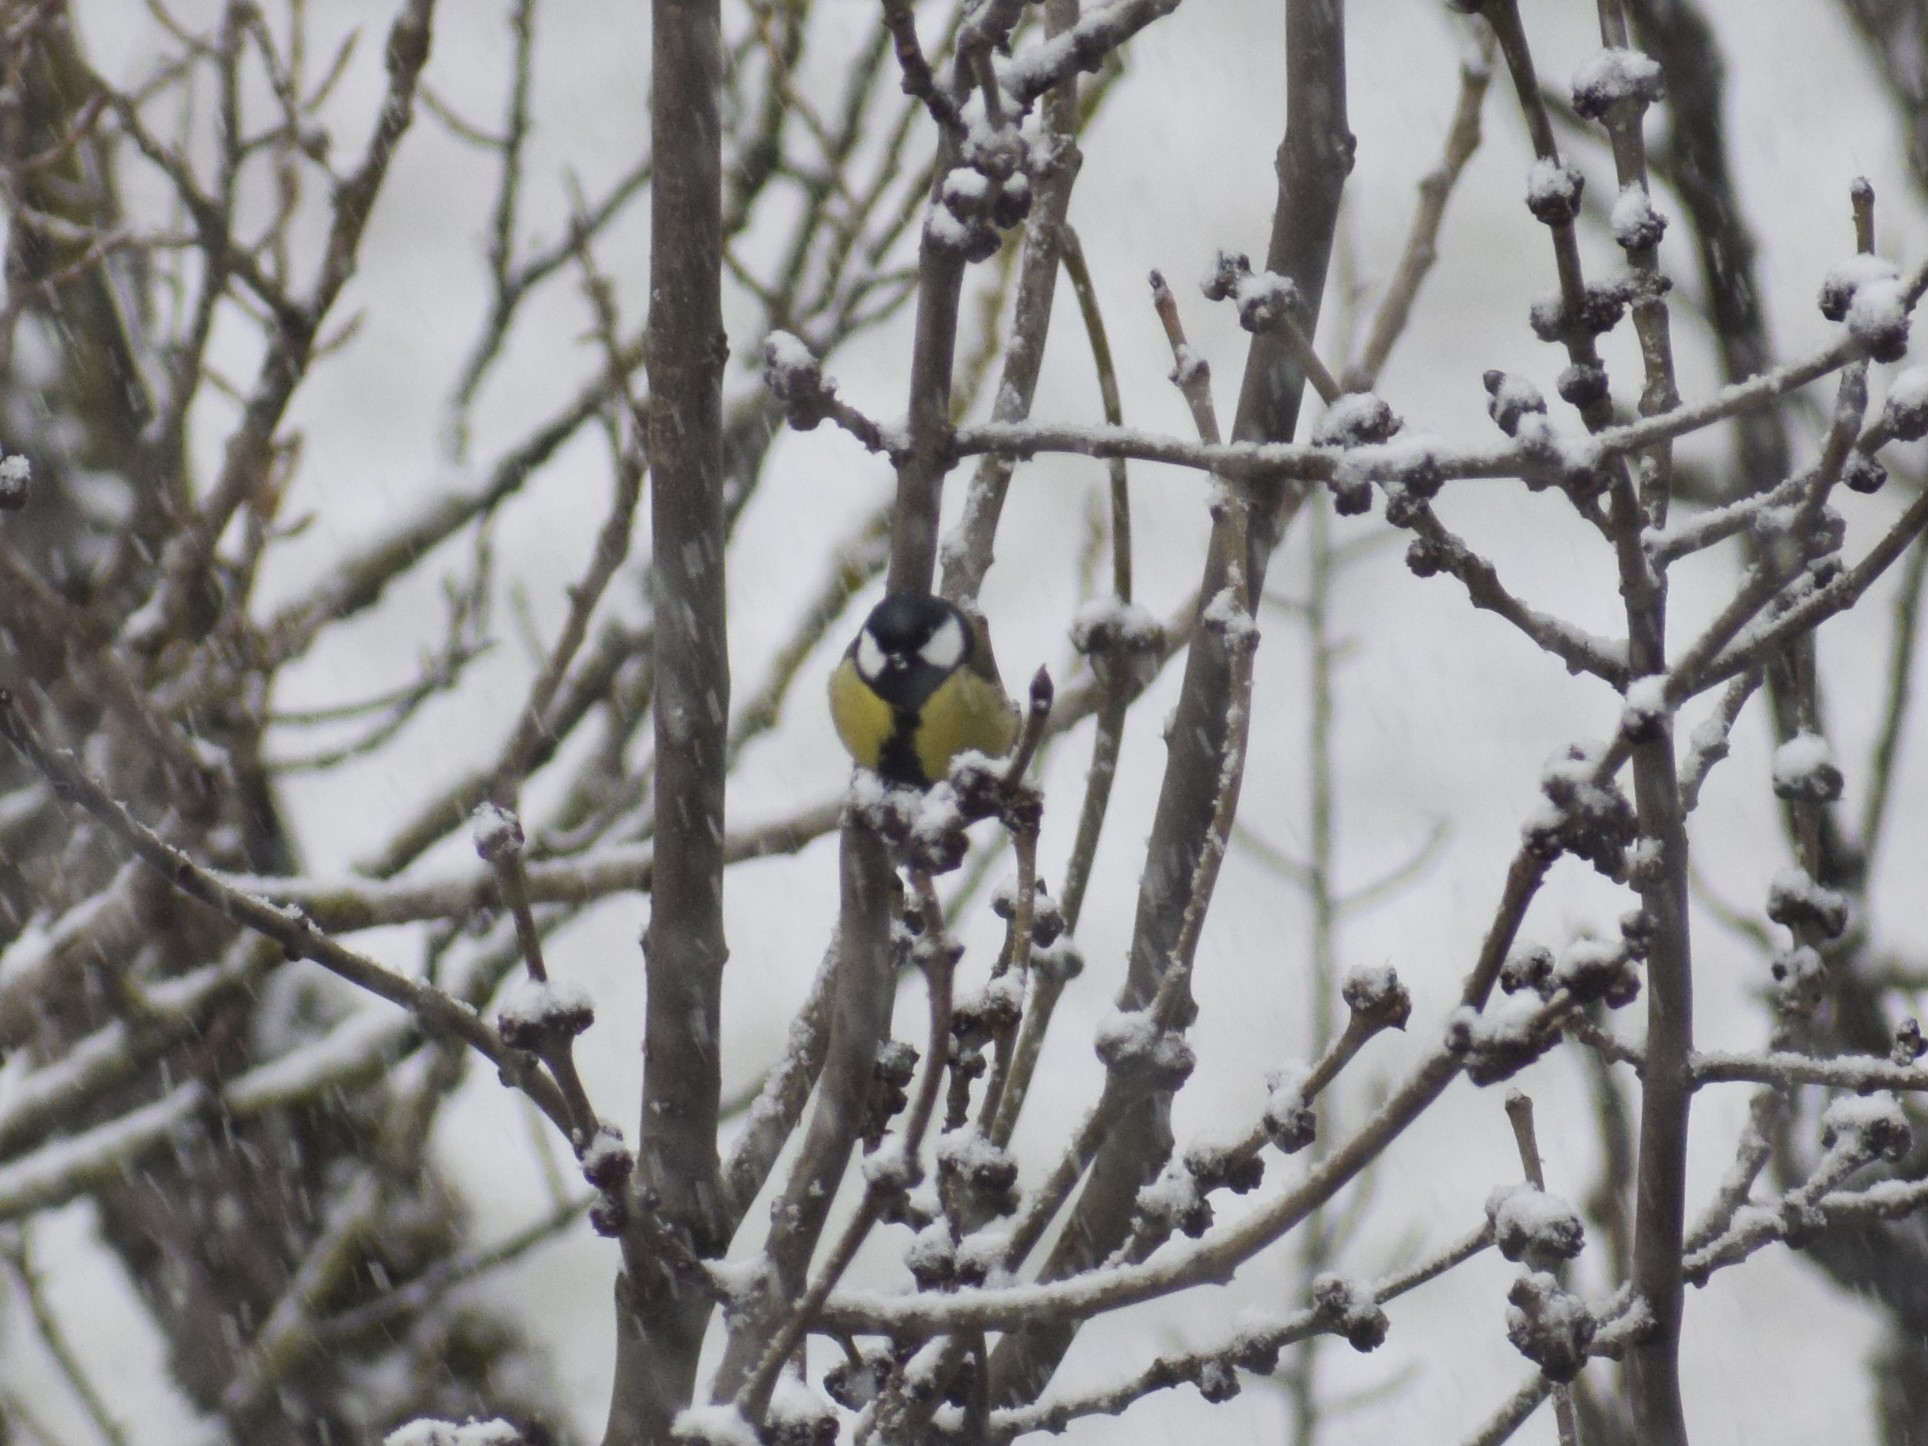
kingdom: Animalia
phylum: Chordata
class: Aves
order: Passeriformes
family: Paridae
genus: Parus
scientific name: Parus major
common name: Great tit
